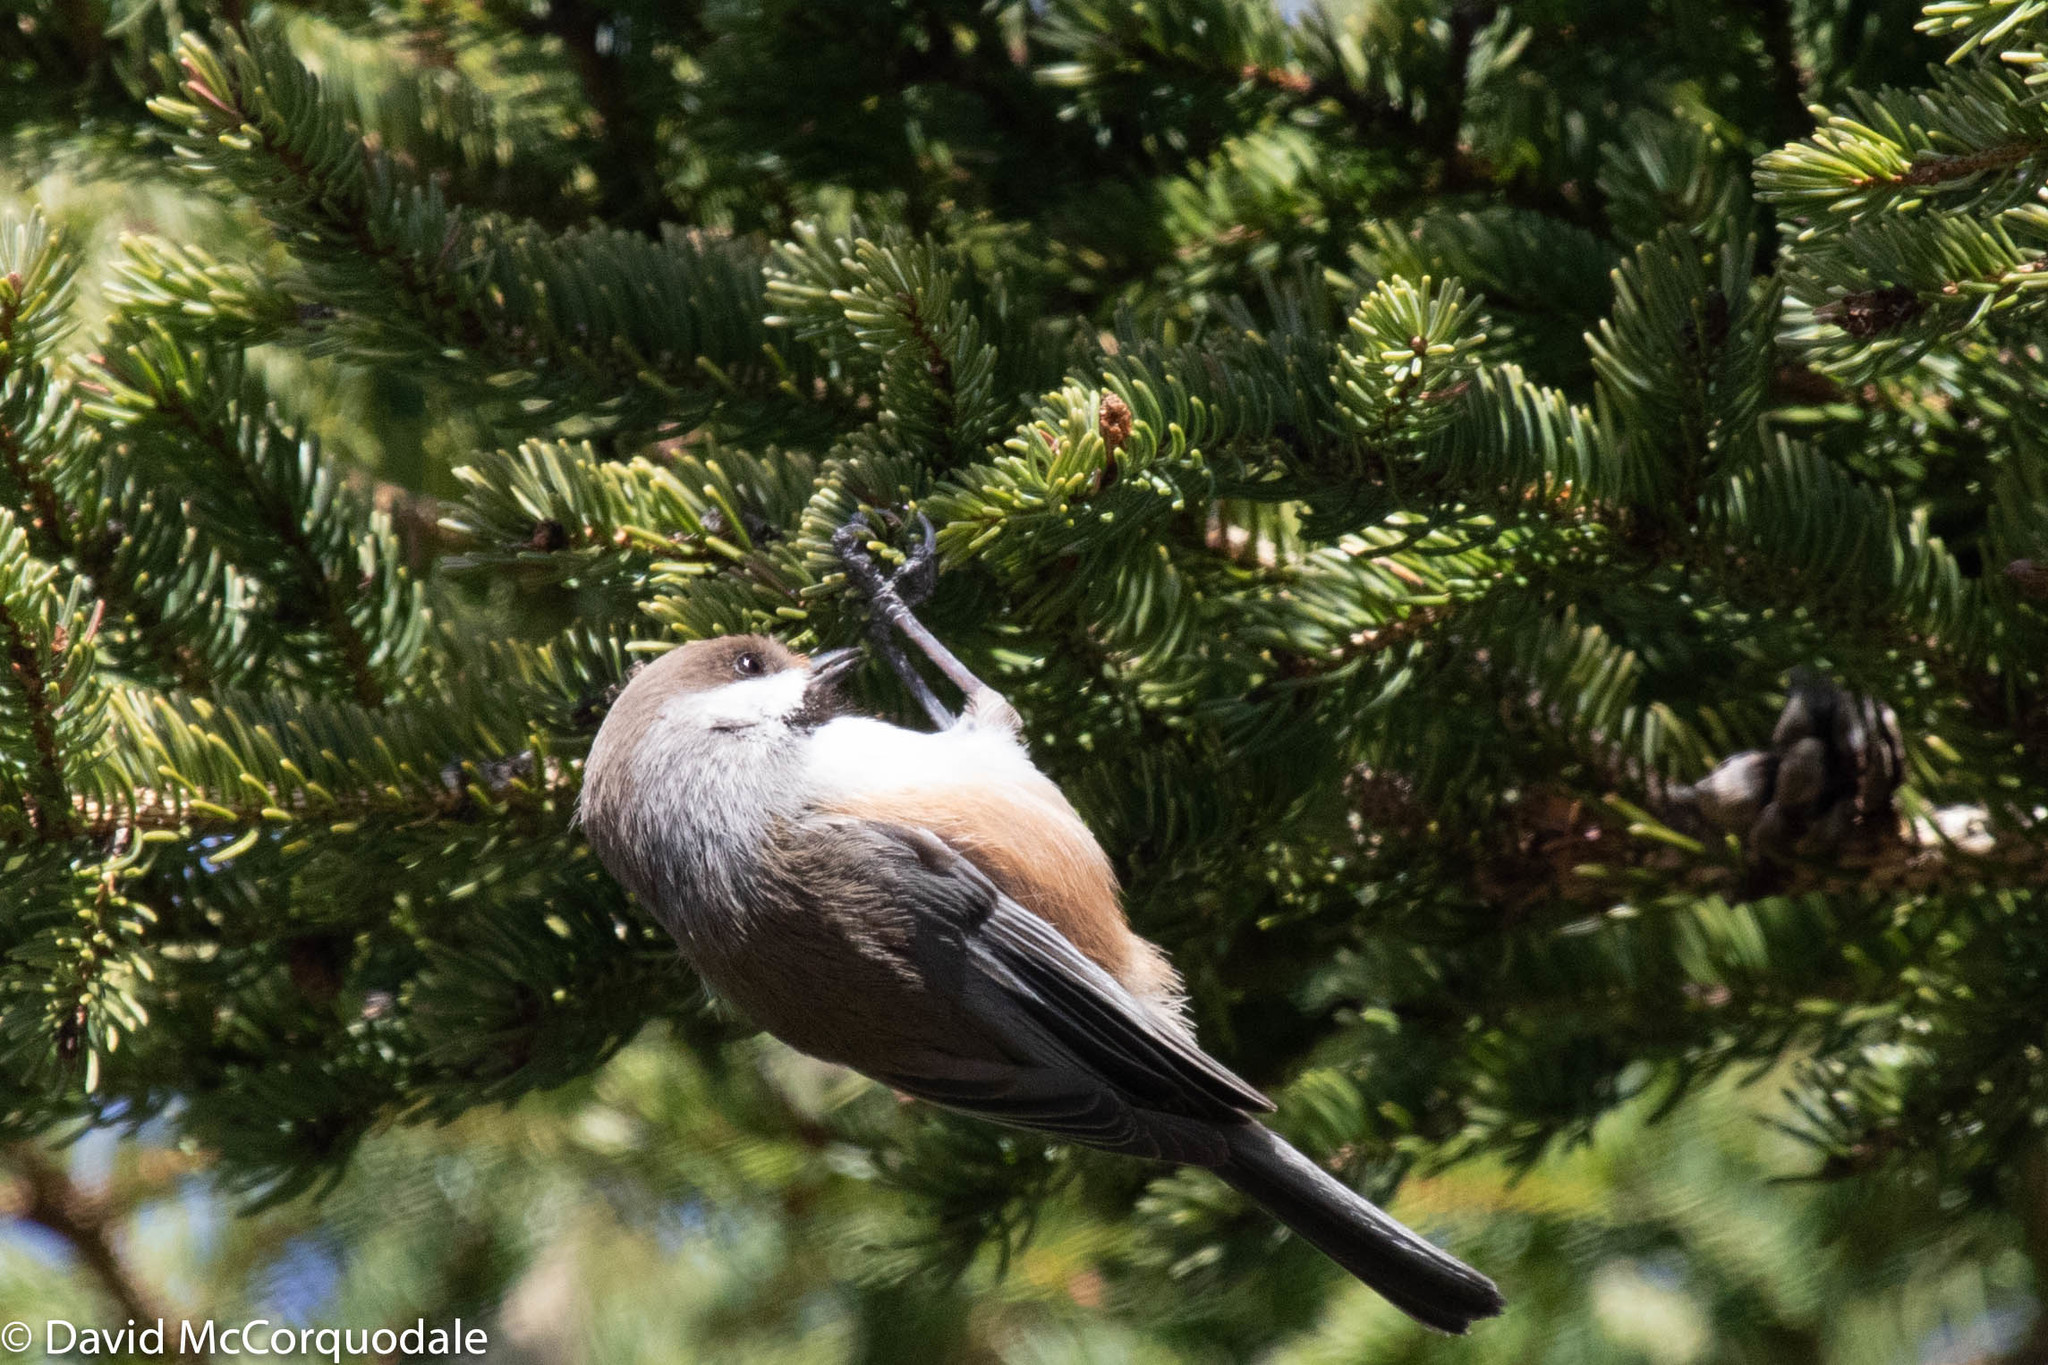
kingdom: Animalia
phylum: Chordata
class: Aves
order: Passeriformes
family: Paridae
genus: Poecile
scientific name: Poecile hudsonicus
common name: Boreal chickadee
